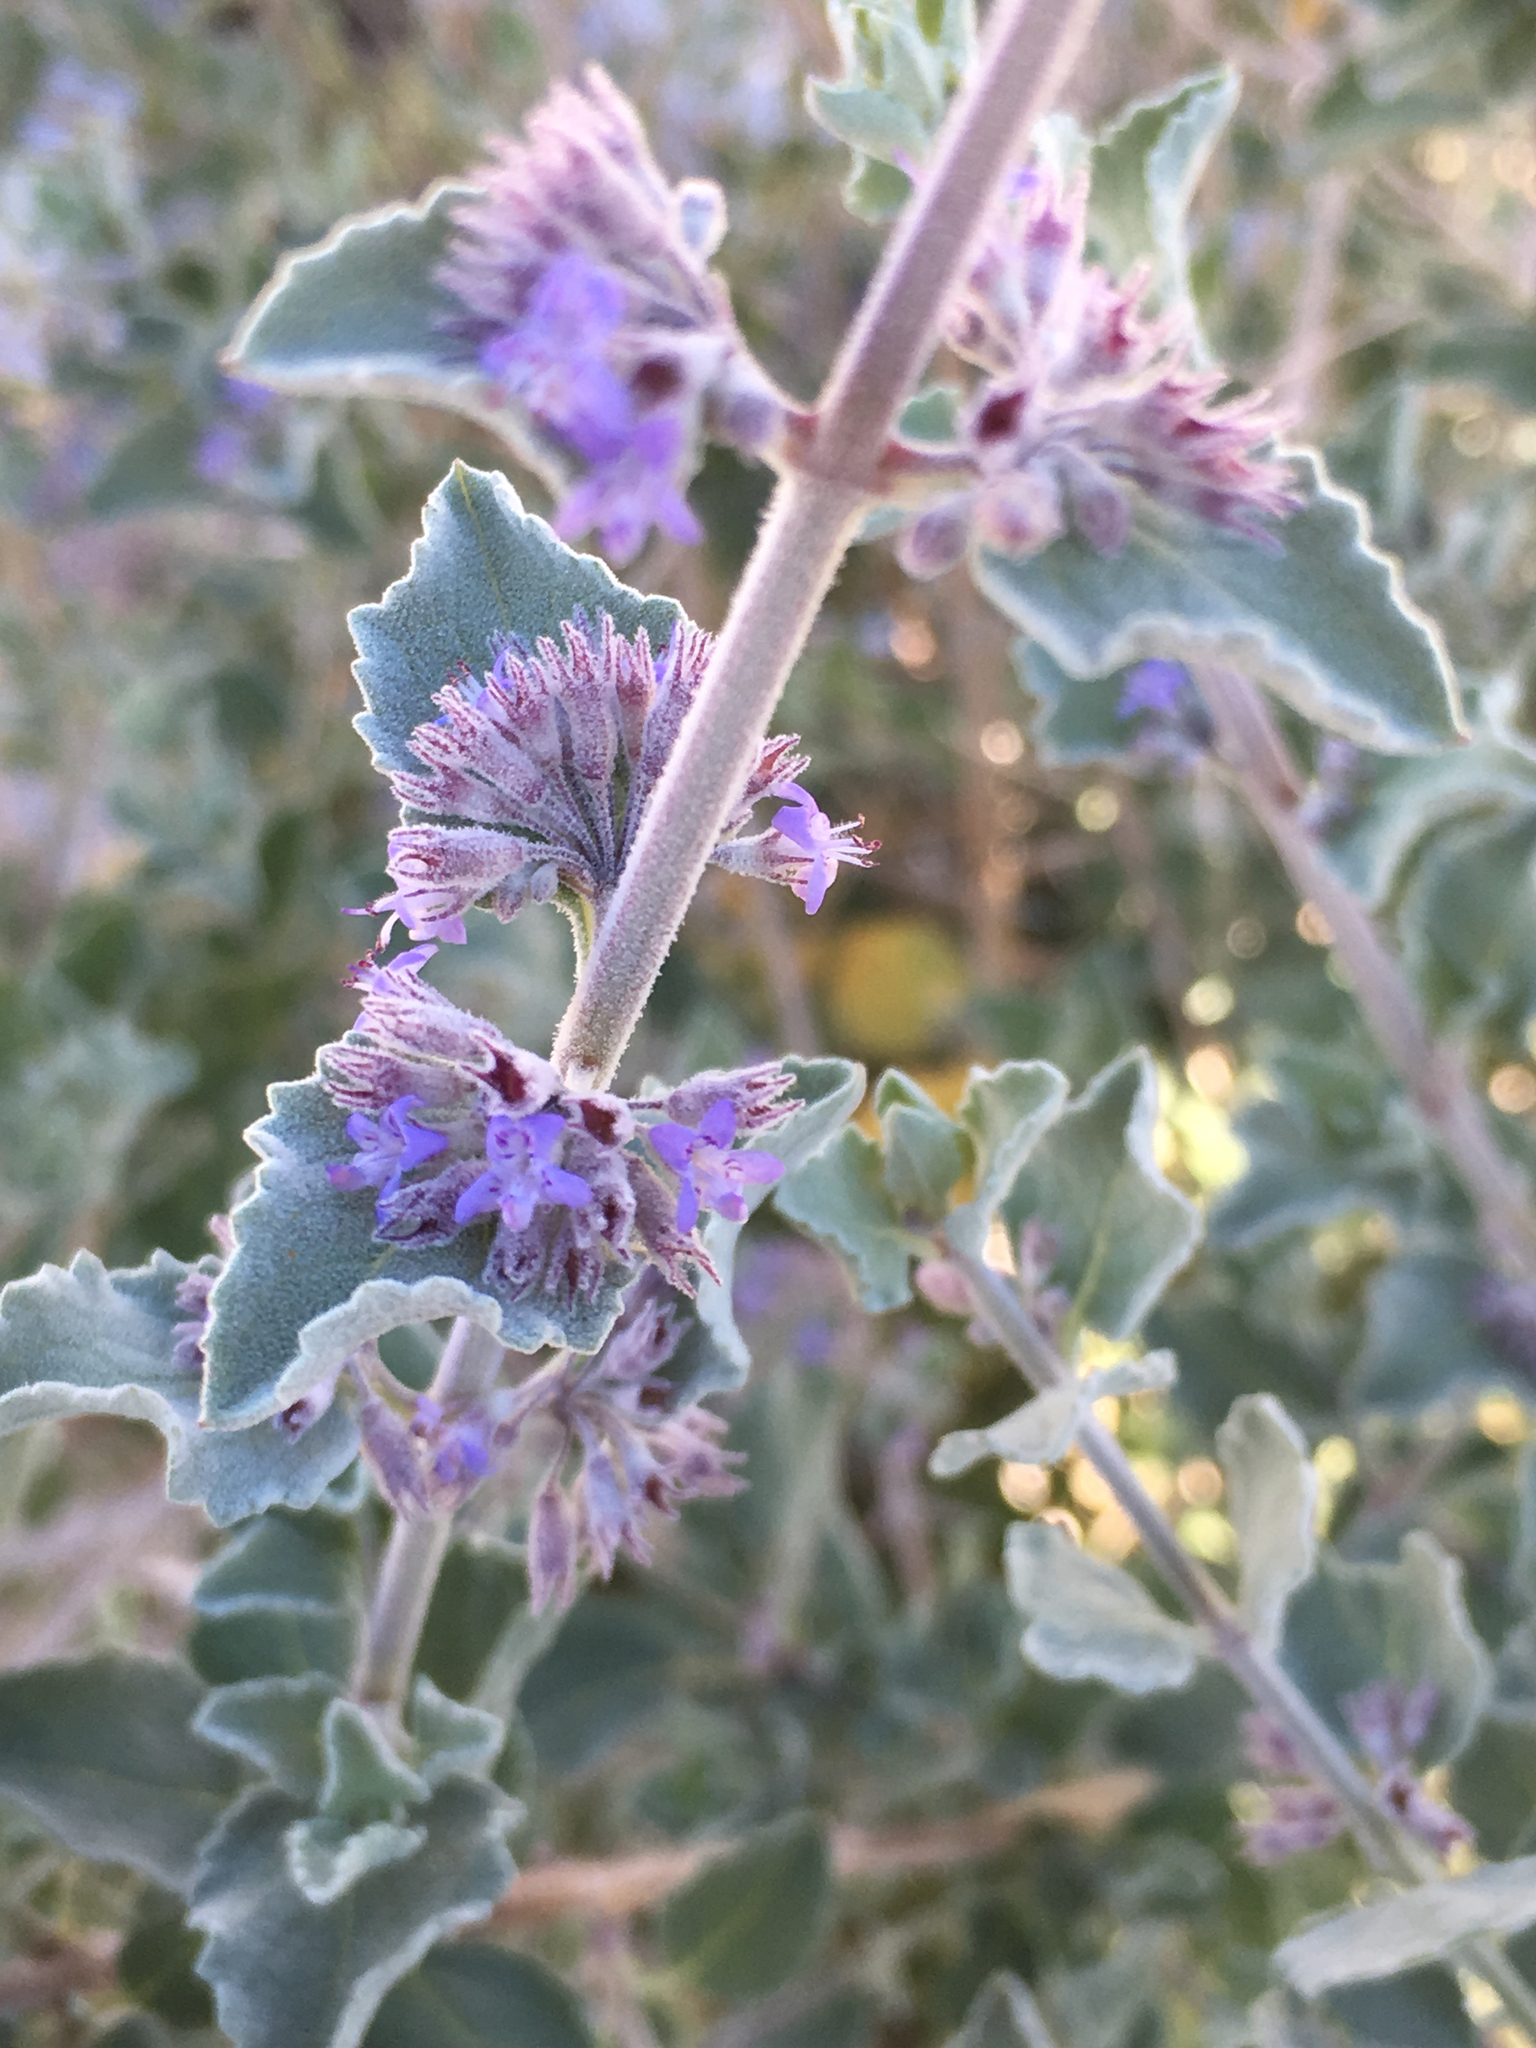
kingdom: Plantae
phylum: Tracheophyta
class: Magnoliopsida
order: Lamiales
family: Lamiaceae
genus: Condea
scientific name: Condea emoryi
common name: Chia
